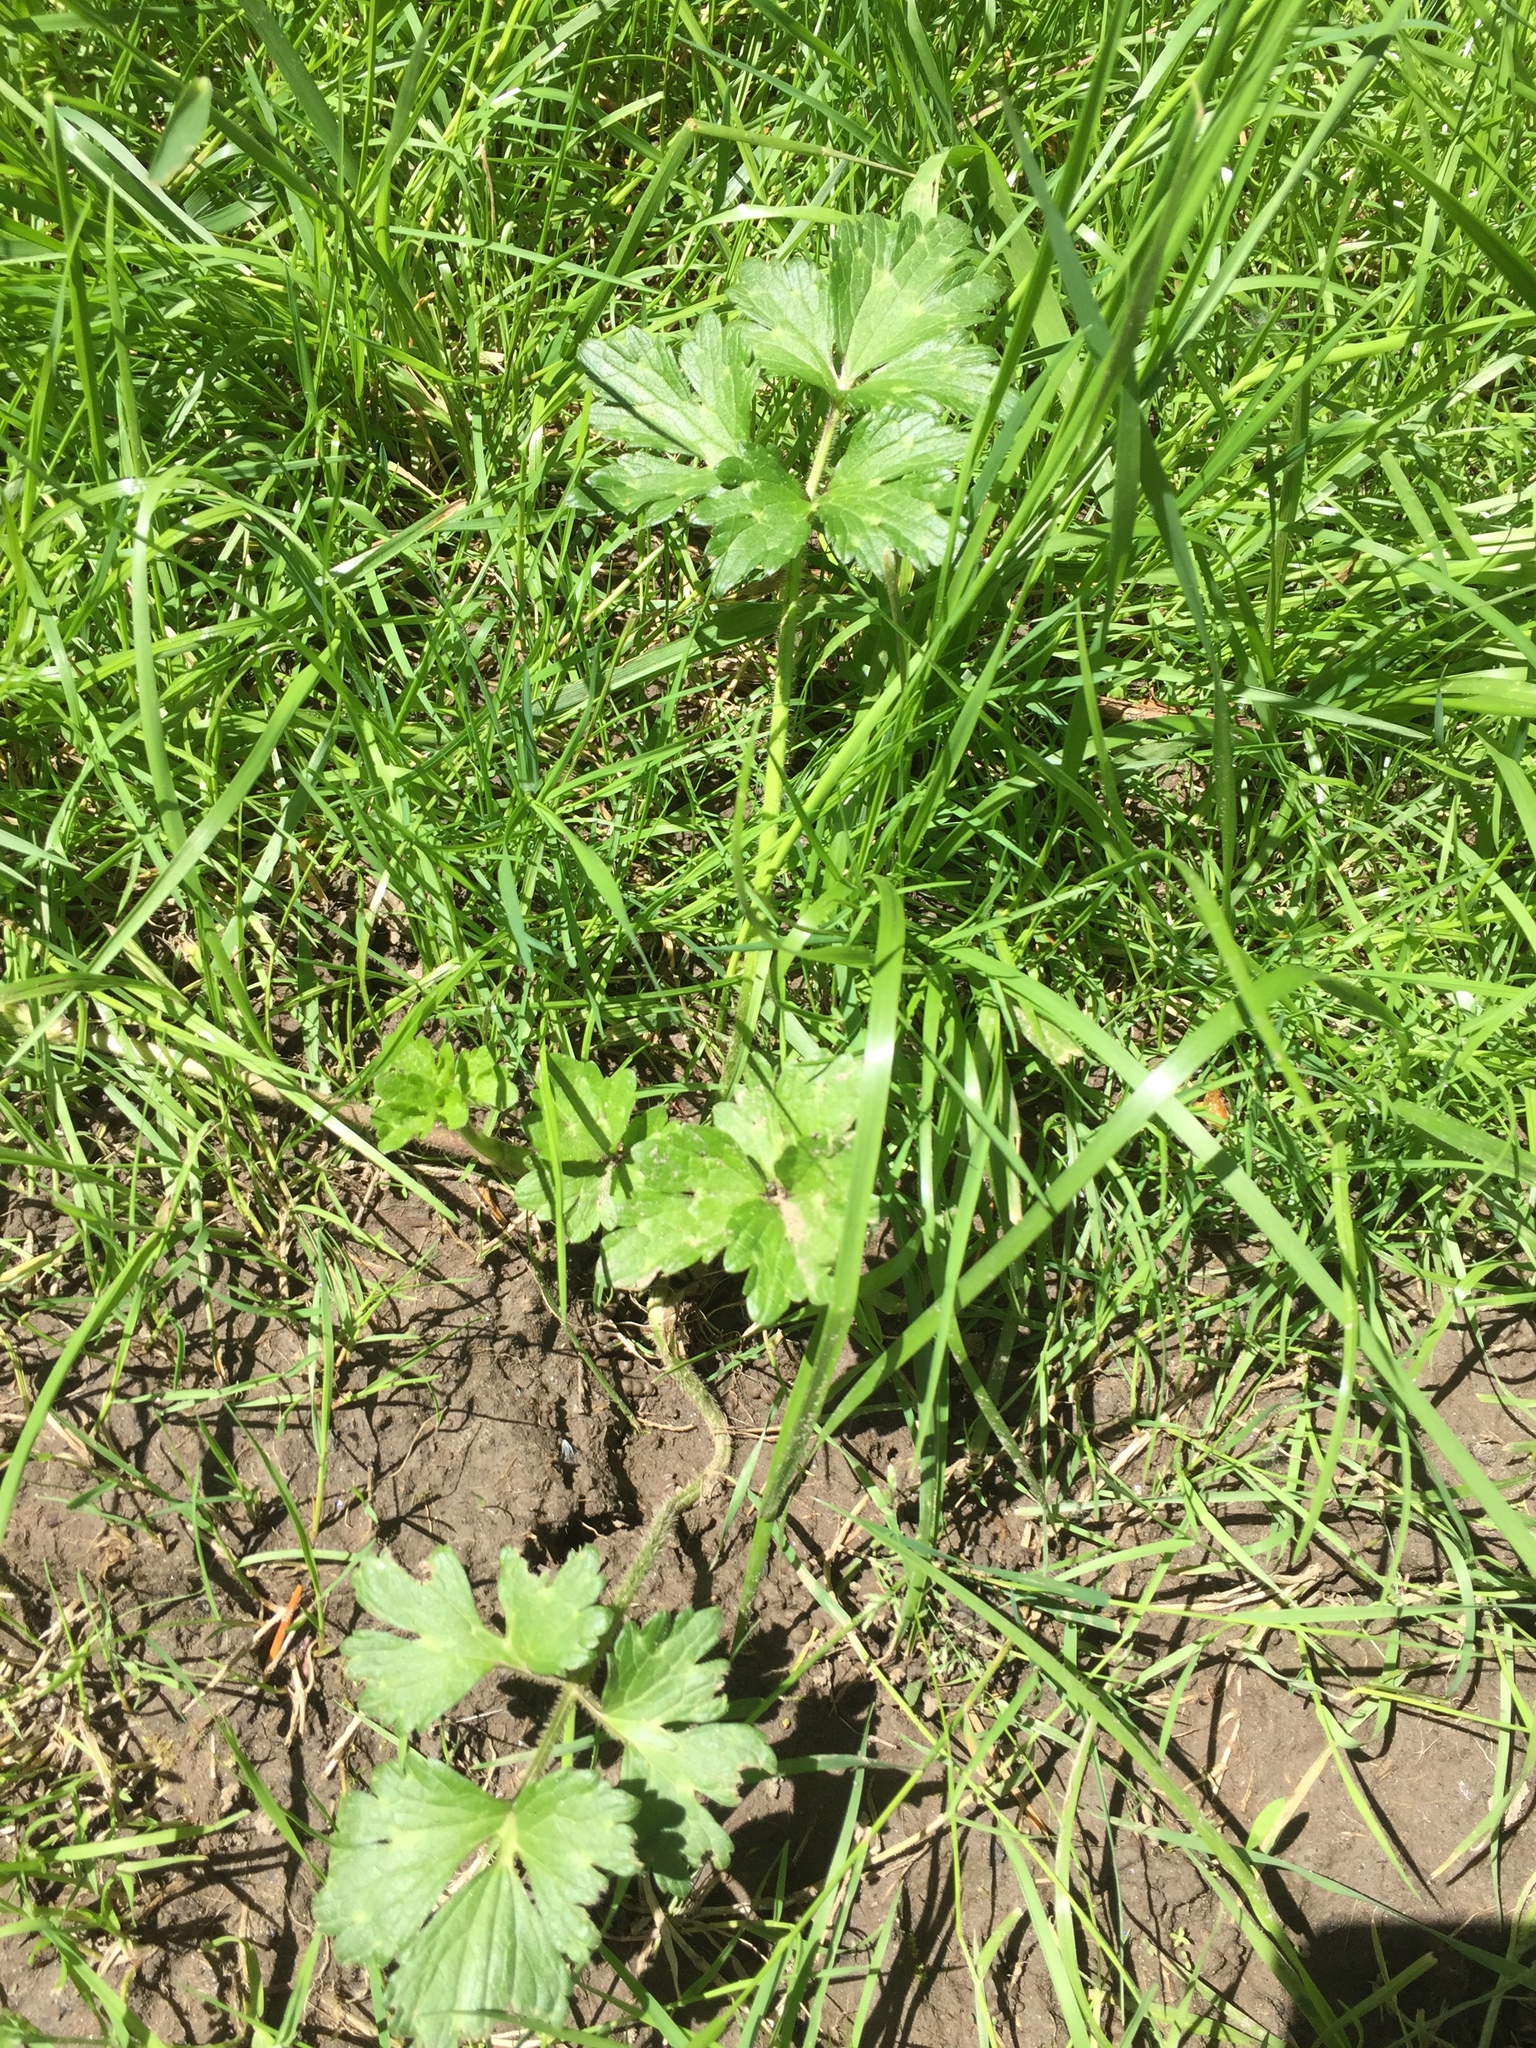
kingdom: Plantae
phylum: Tracheophyta
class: Magnoliopsida
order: Ranunculales
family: Ranunculaceae
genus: Ranunculus
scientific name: Ranunculus repens
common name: Creeping buttercup
